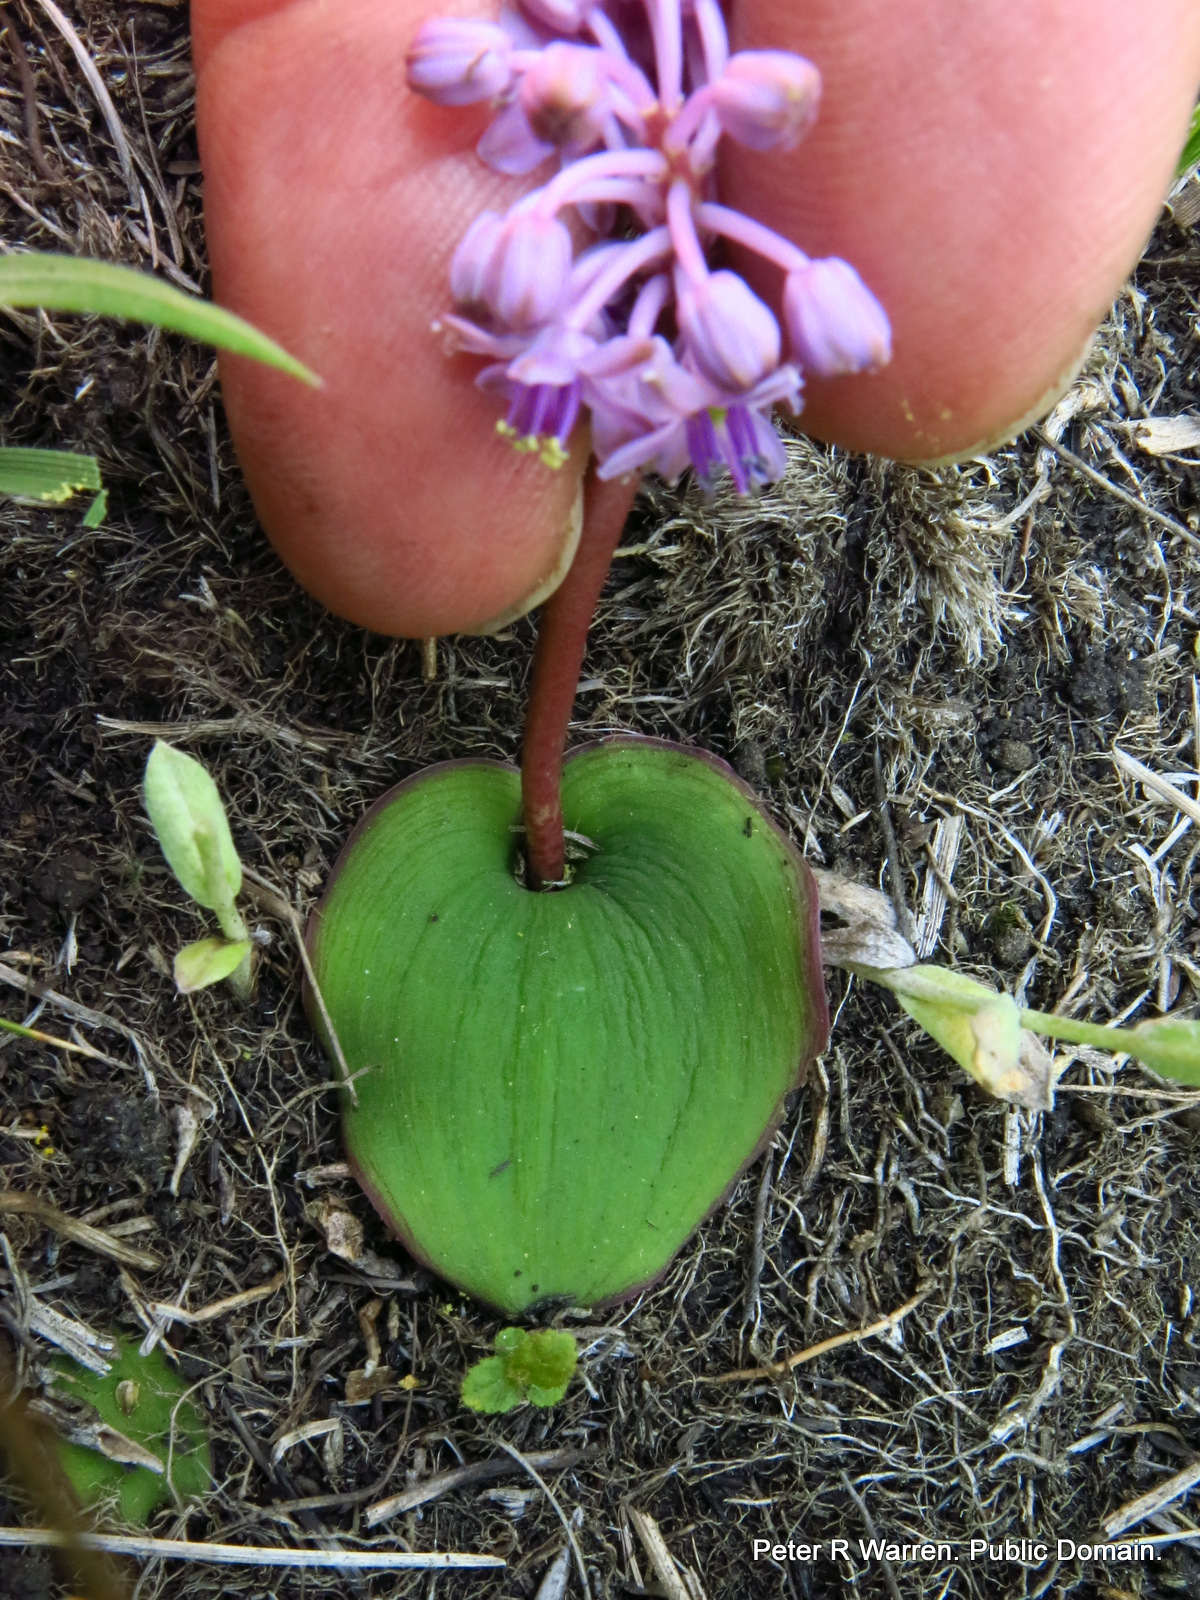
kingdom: Plantae
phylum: Tracheophyta
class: Liliopsida
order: Asparagales
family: Asparagaceae
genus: Ledebouria
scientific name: Ledebouria monophylla
